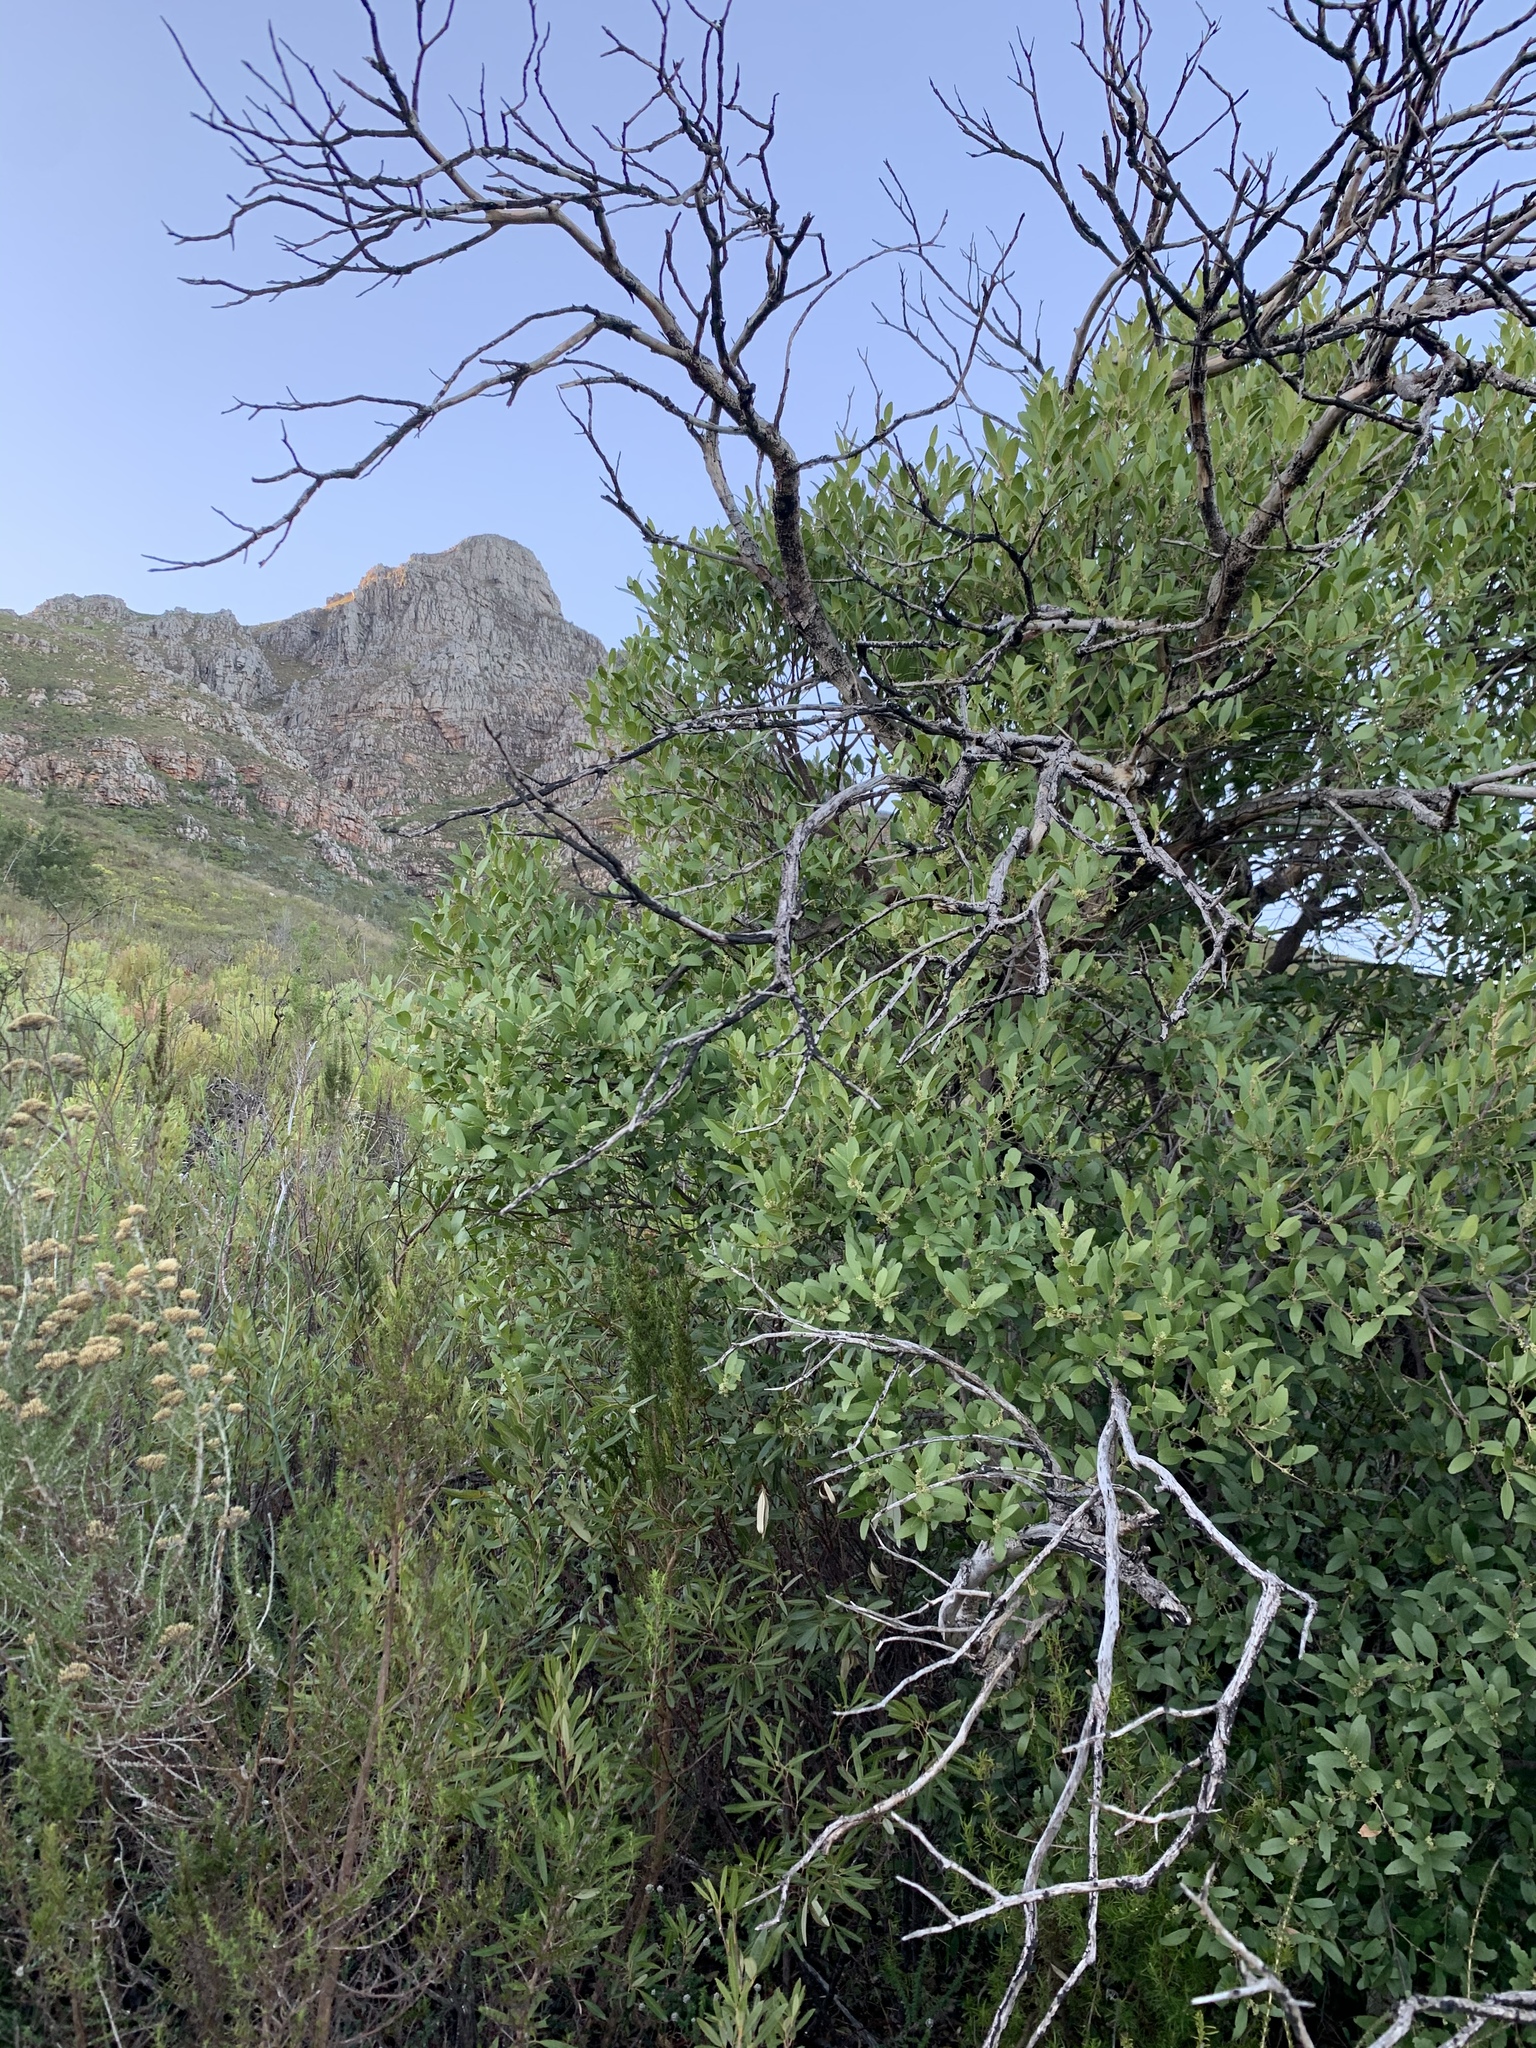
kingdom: Plantae
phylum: Tracheophyta
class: Magnoliopsida
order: Celastrales
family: Celastraceae
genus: Gymnosporia
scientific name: Gymnosporia laurina
